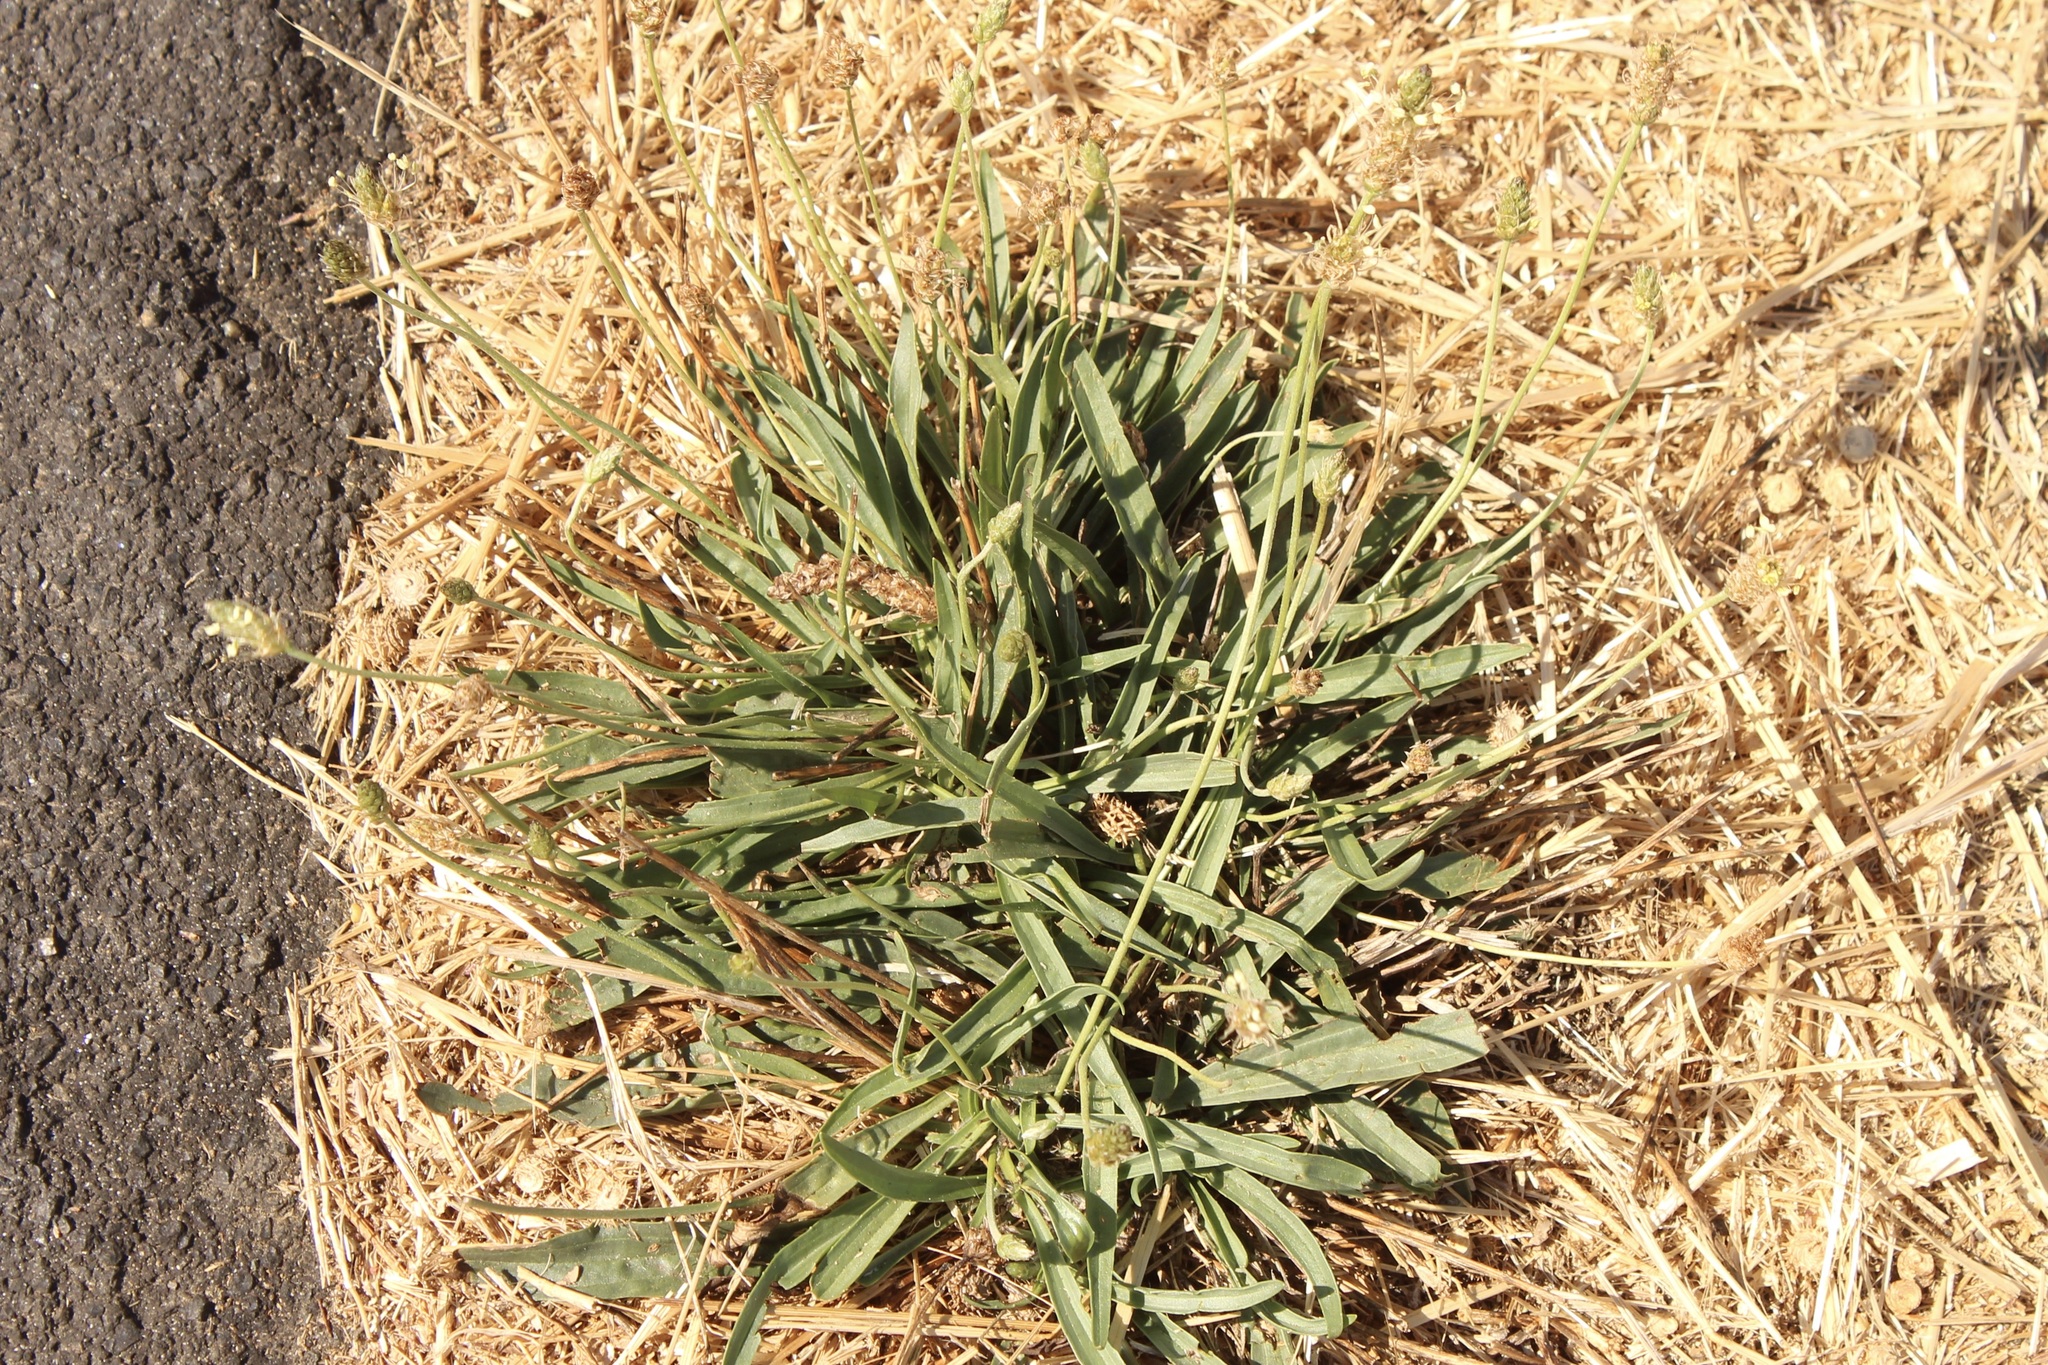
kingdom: Plantae
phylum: Tracheophyta
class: Magnoliopsida
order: Lamiales
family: Plantaginaceae
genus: Plantago
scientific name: Plantago lanceolata
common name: Ribwort plantain
